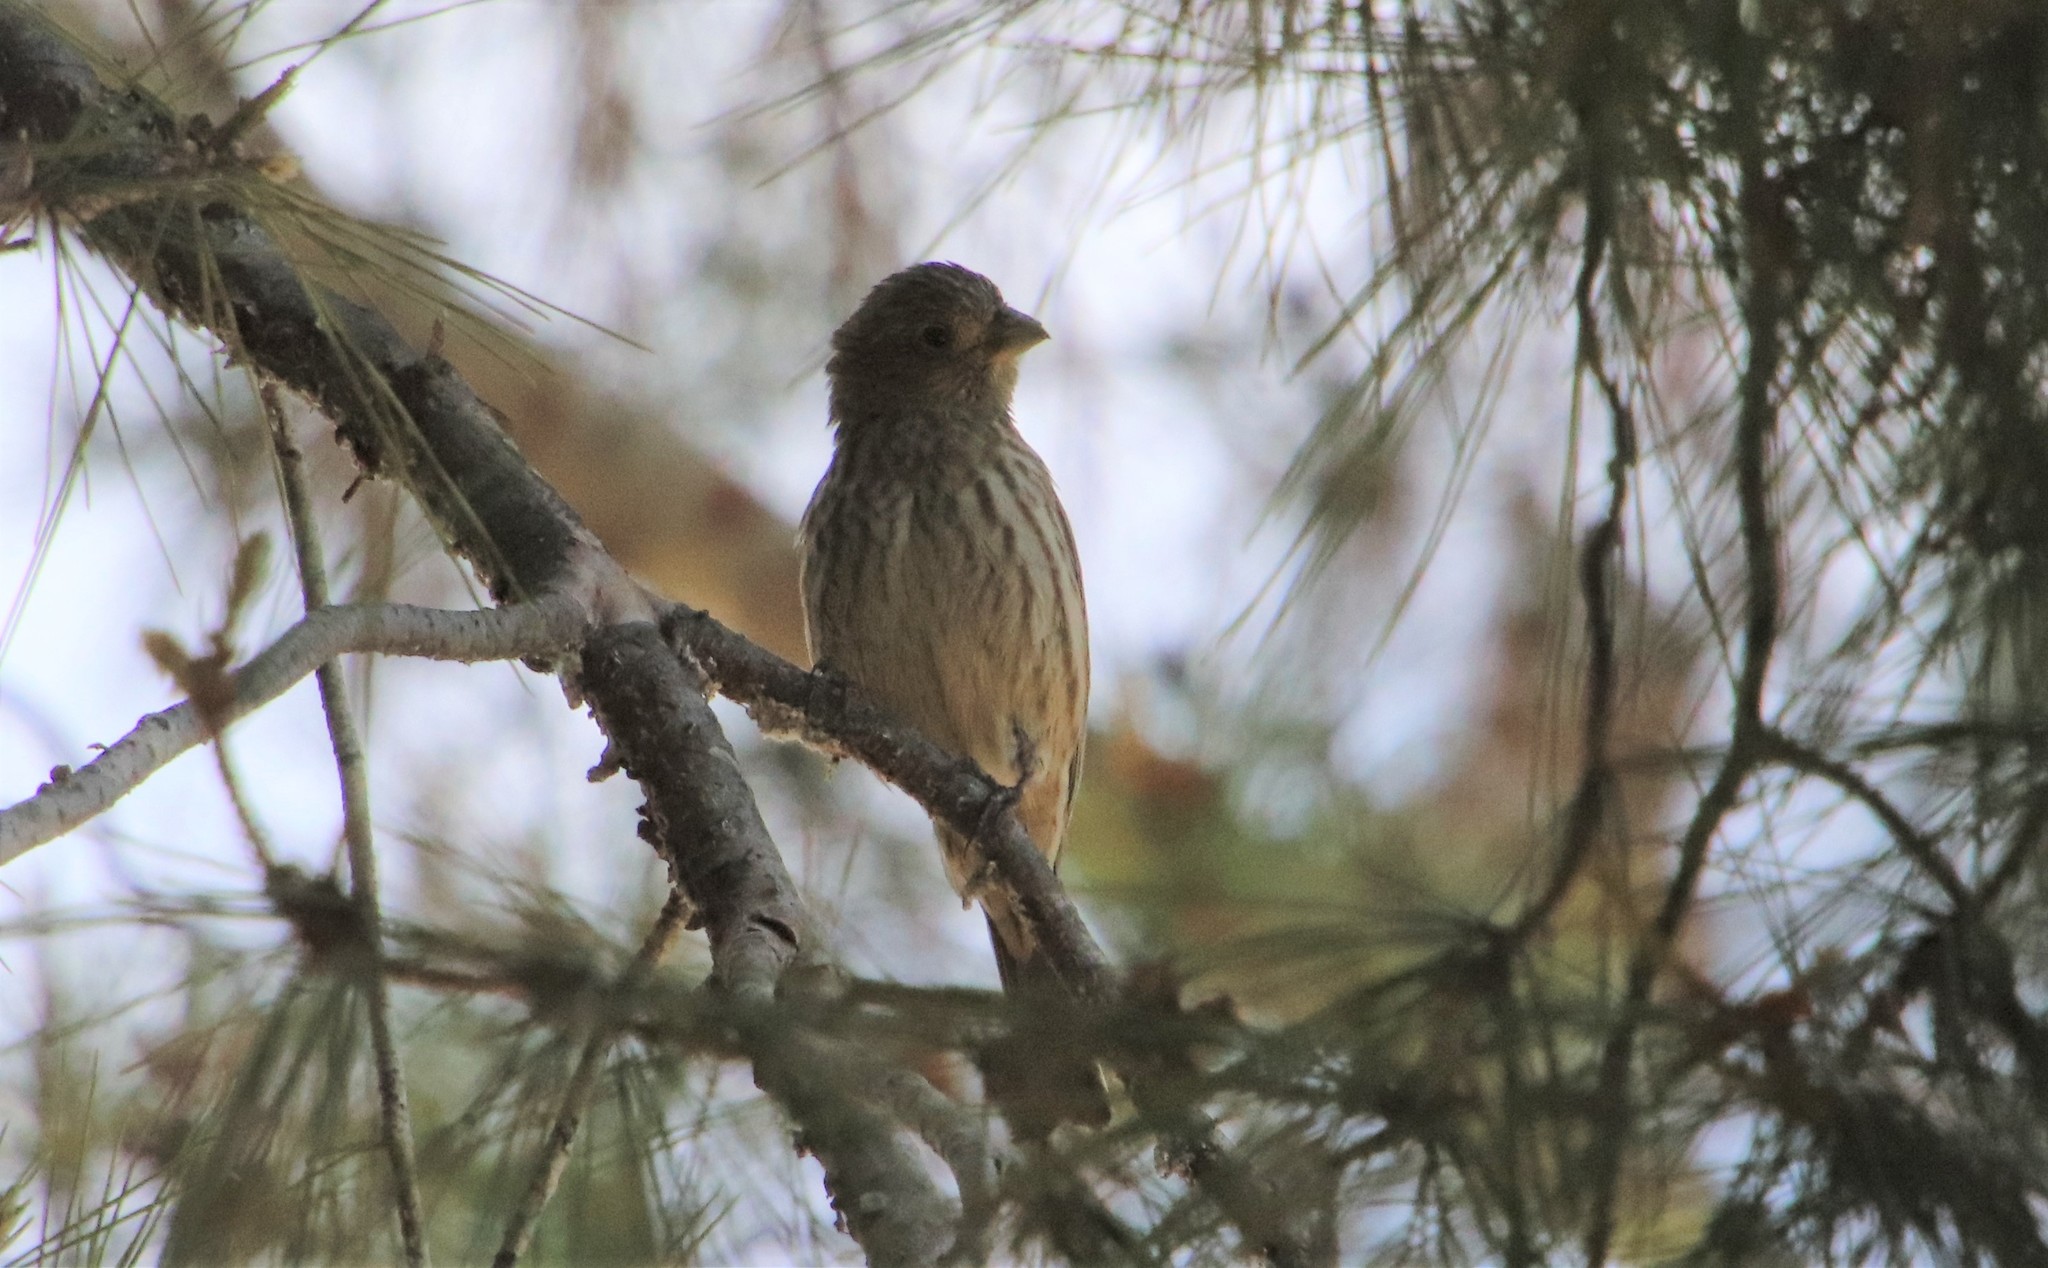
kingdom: Animalia
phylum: Chordata
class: Aves
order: Passeriformes
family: Fringillidae
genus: Haemorhous
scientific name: Haemorhous mexicanus
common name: House finch
